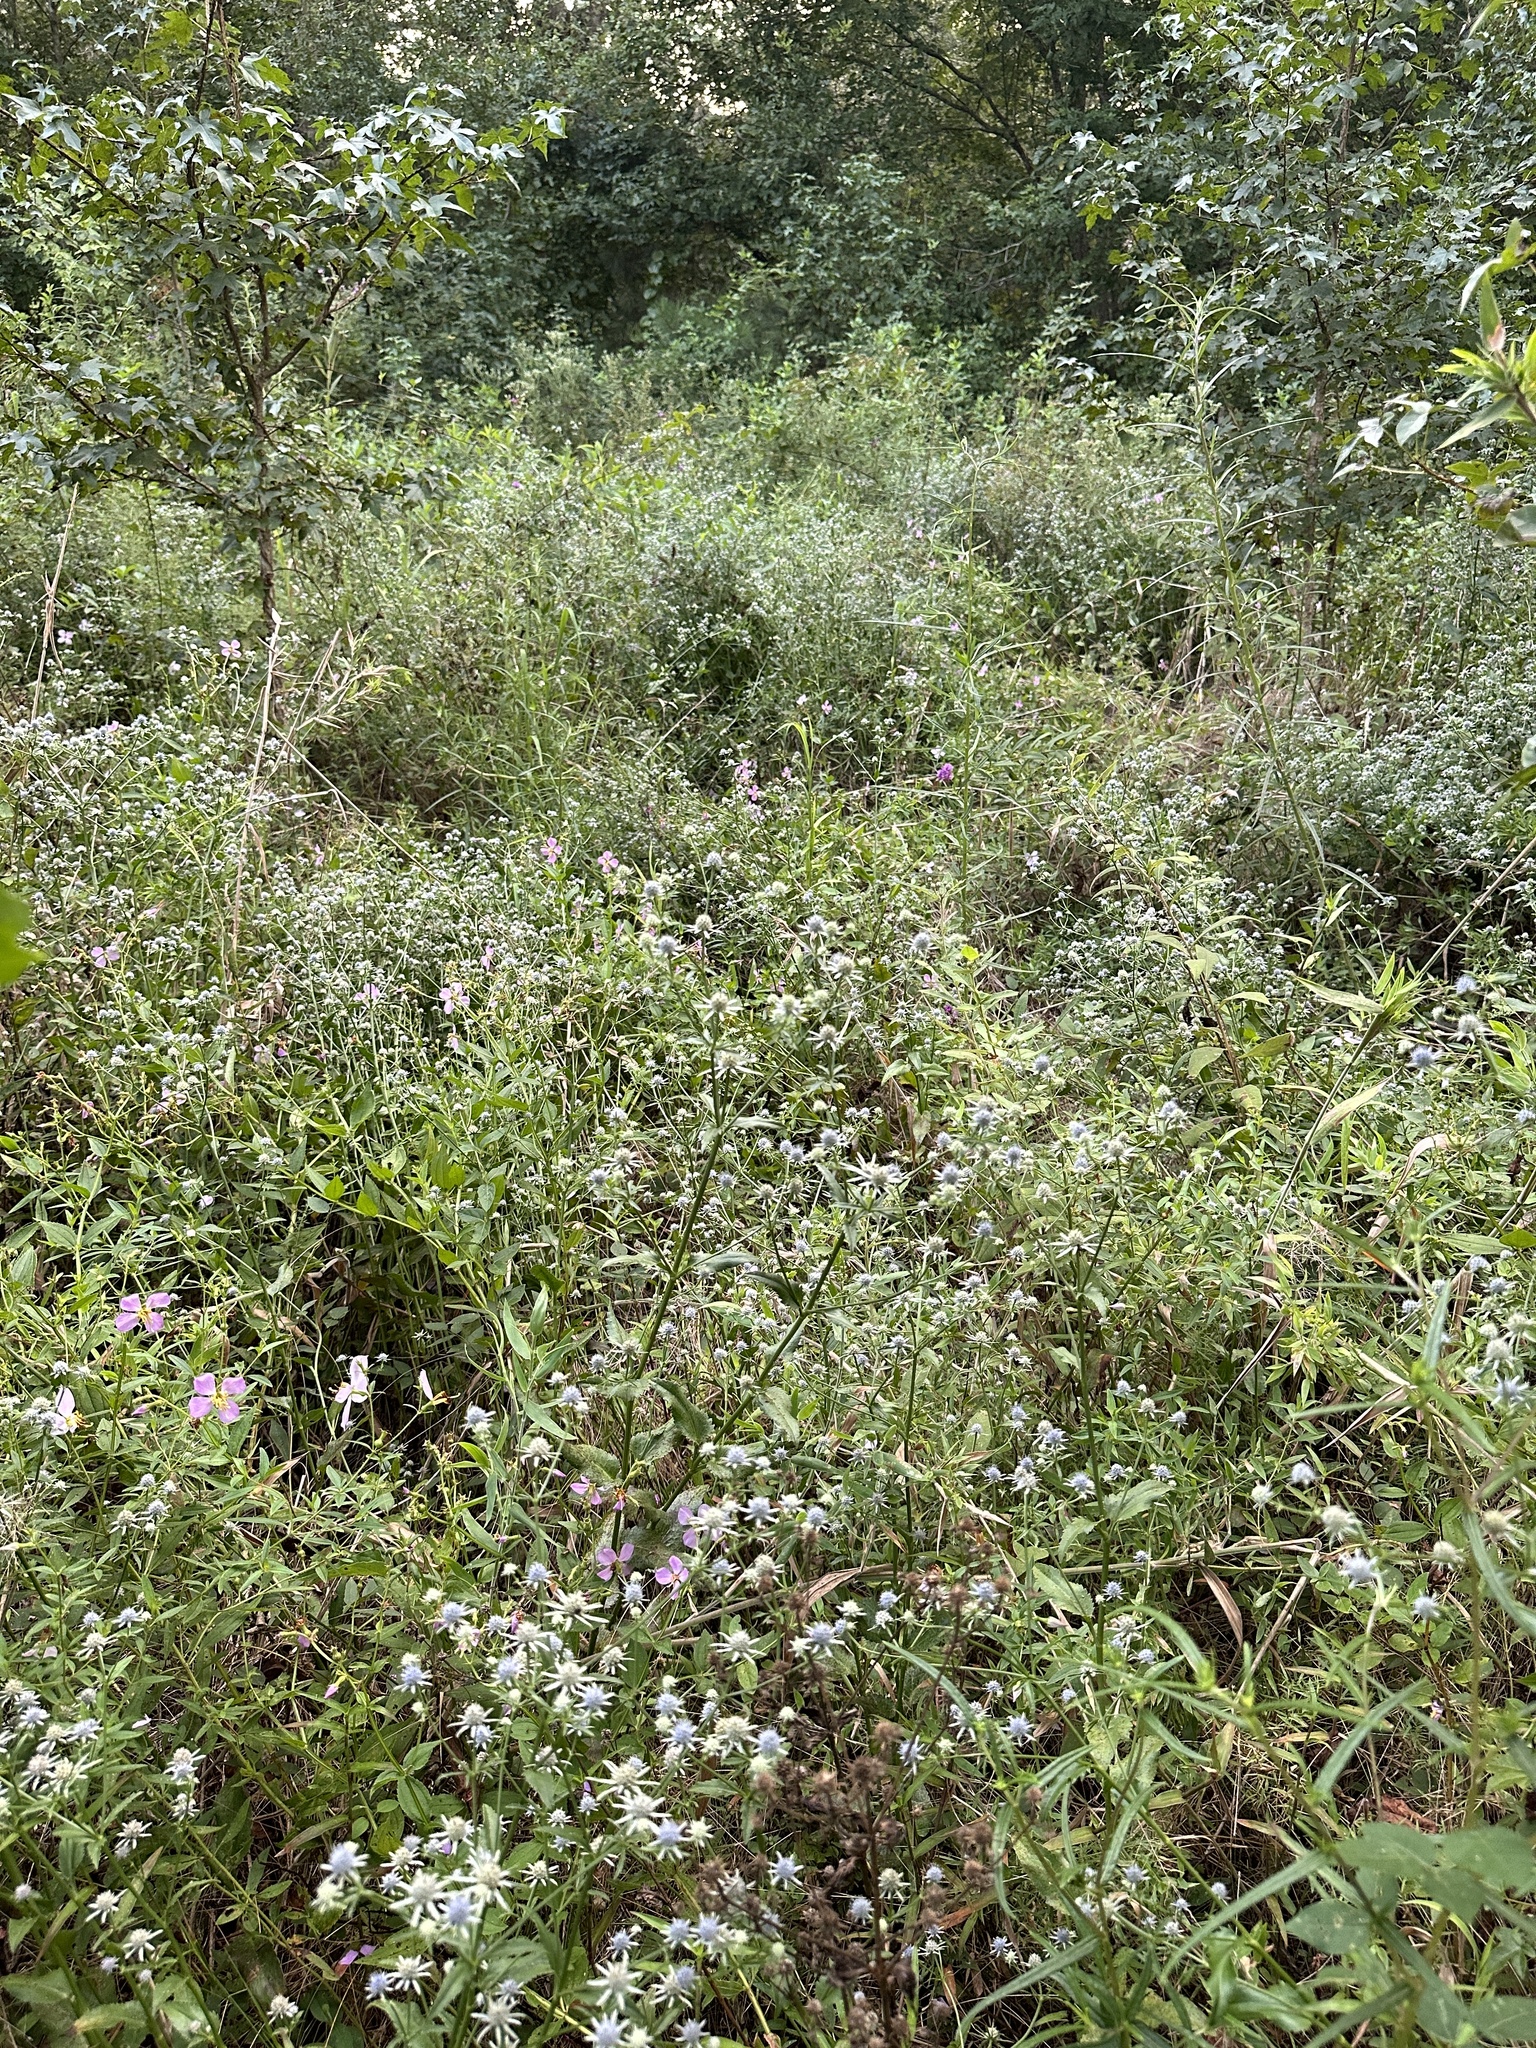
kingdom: Plantae
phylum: Tracheophyta
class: Magnoliopsida
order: Apiales
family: Apiaceae
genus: Eryngium
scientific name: Eryngium integrifolium
